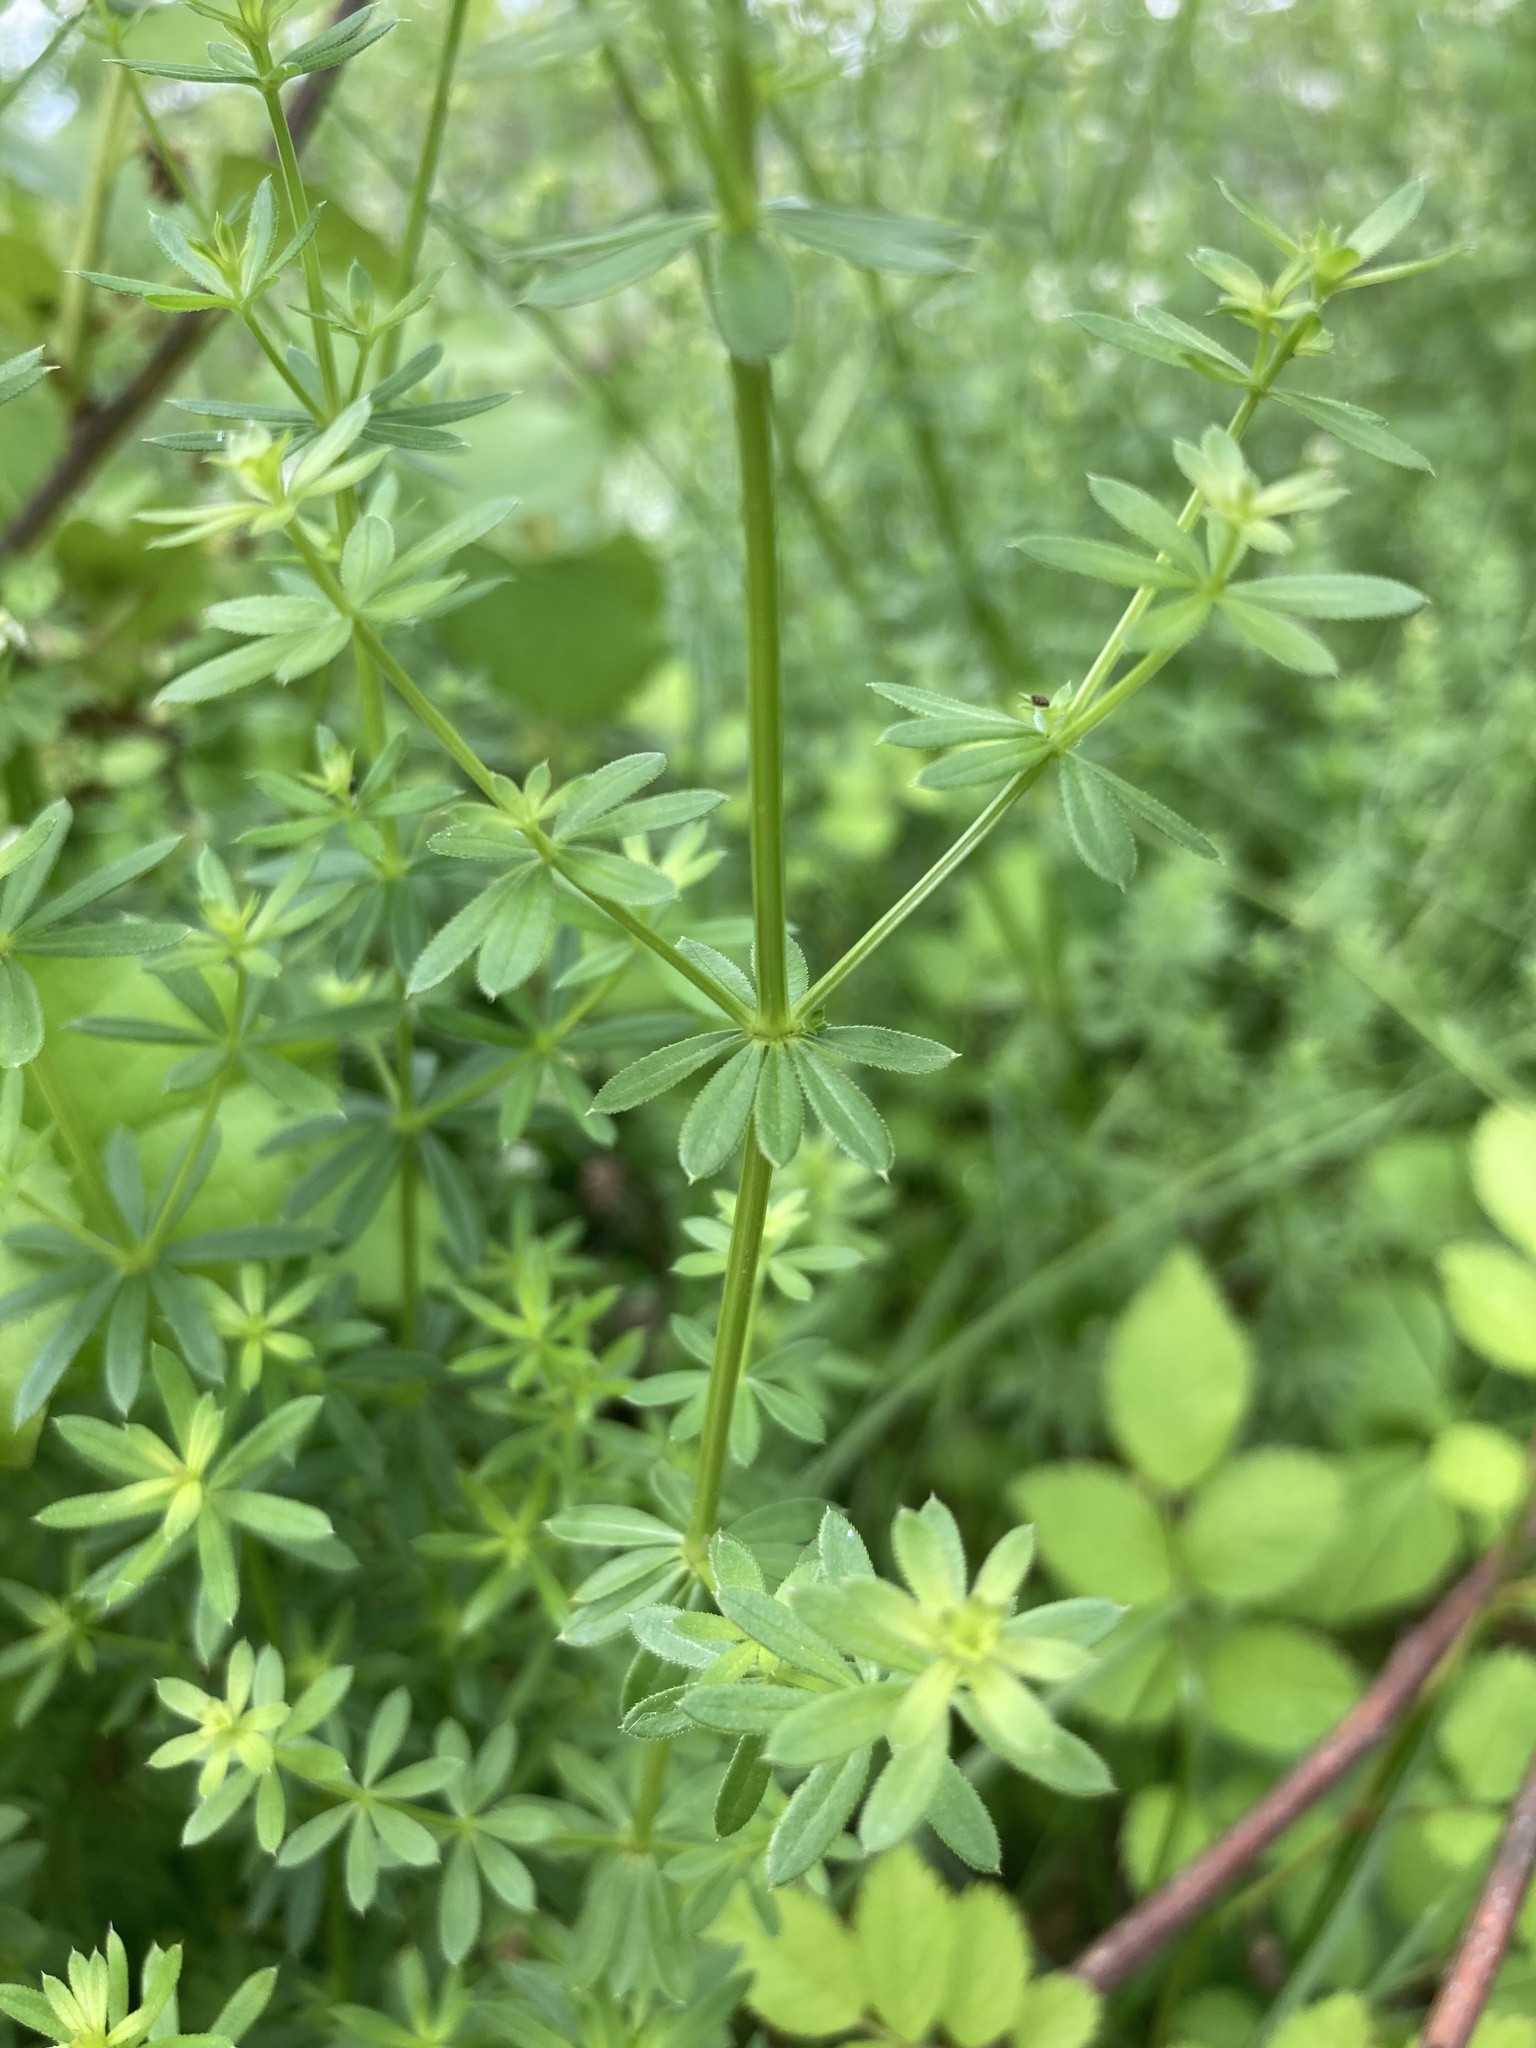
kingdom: Plantae
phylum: Tracheophyta
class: Magnoliopsida
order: Gentianales
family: Rubiaceae
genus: Galium
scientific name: Galium album
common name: White bedstraw
